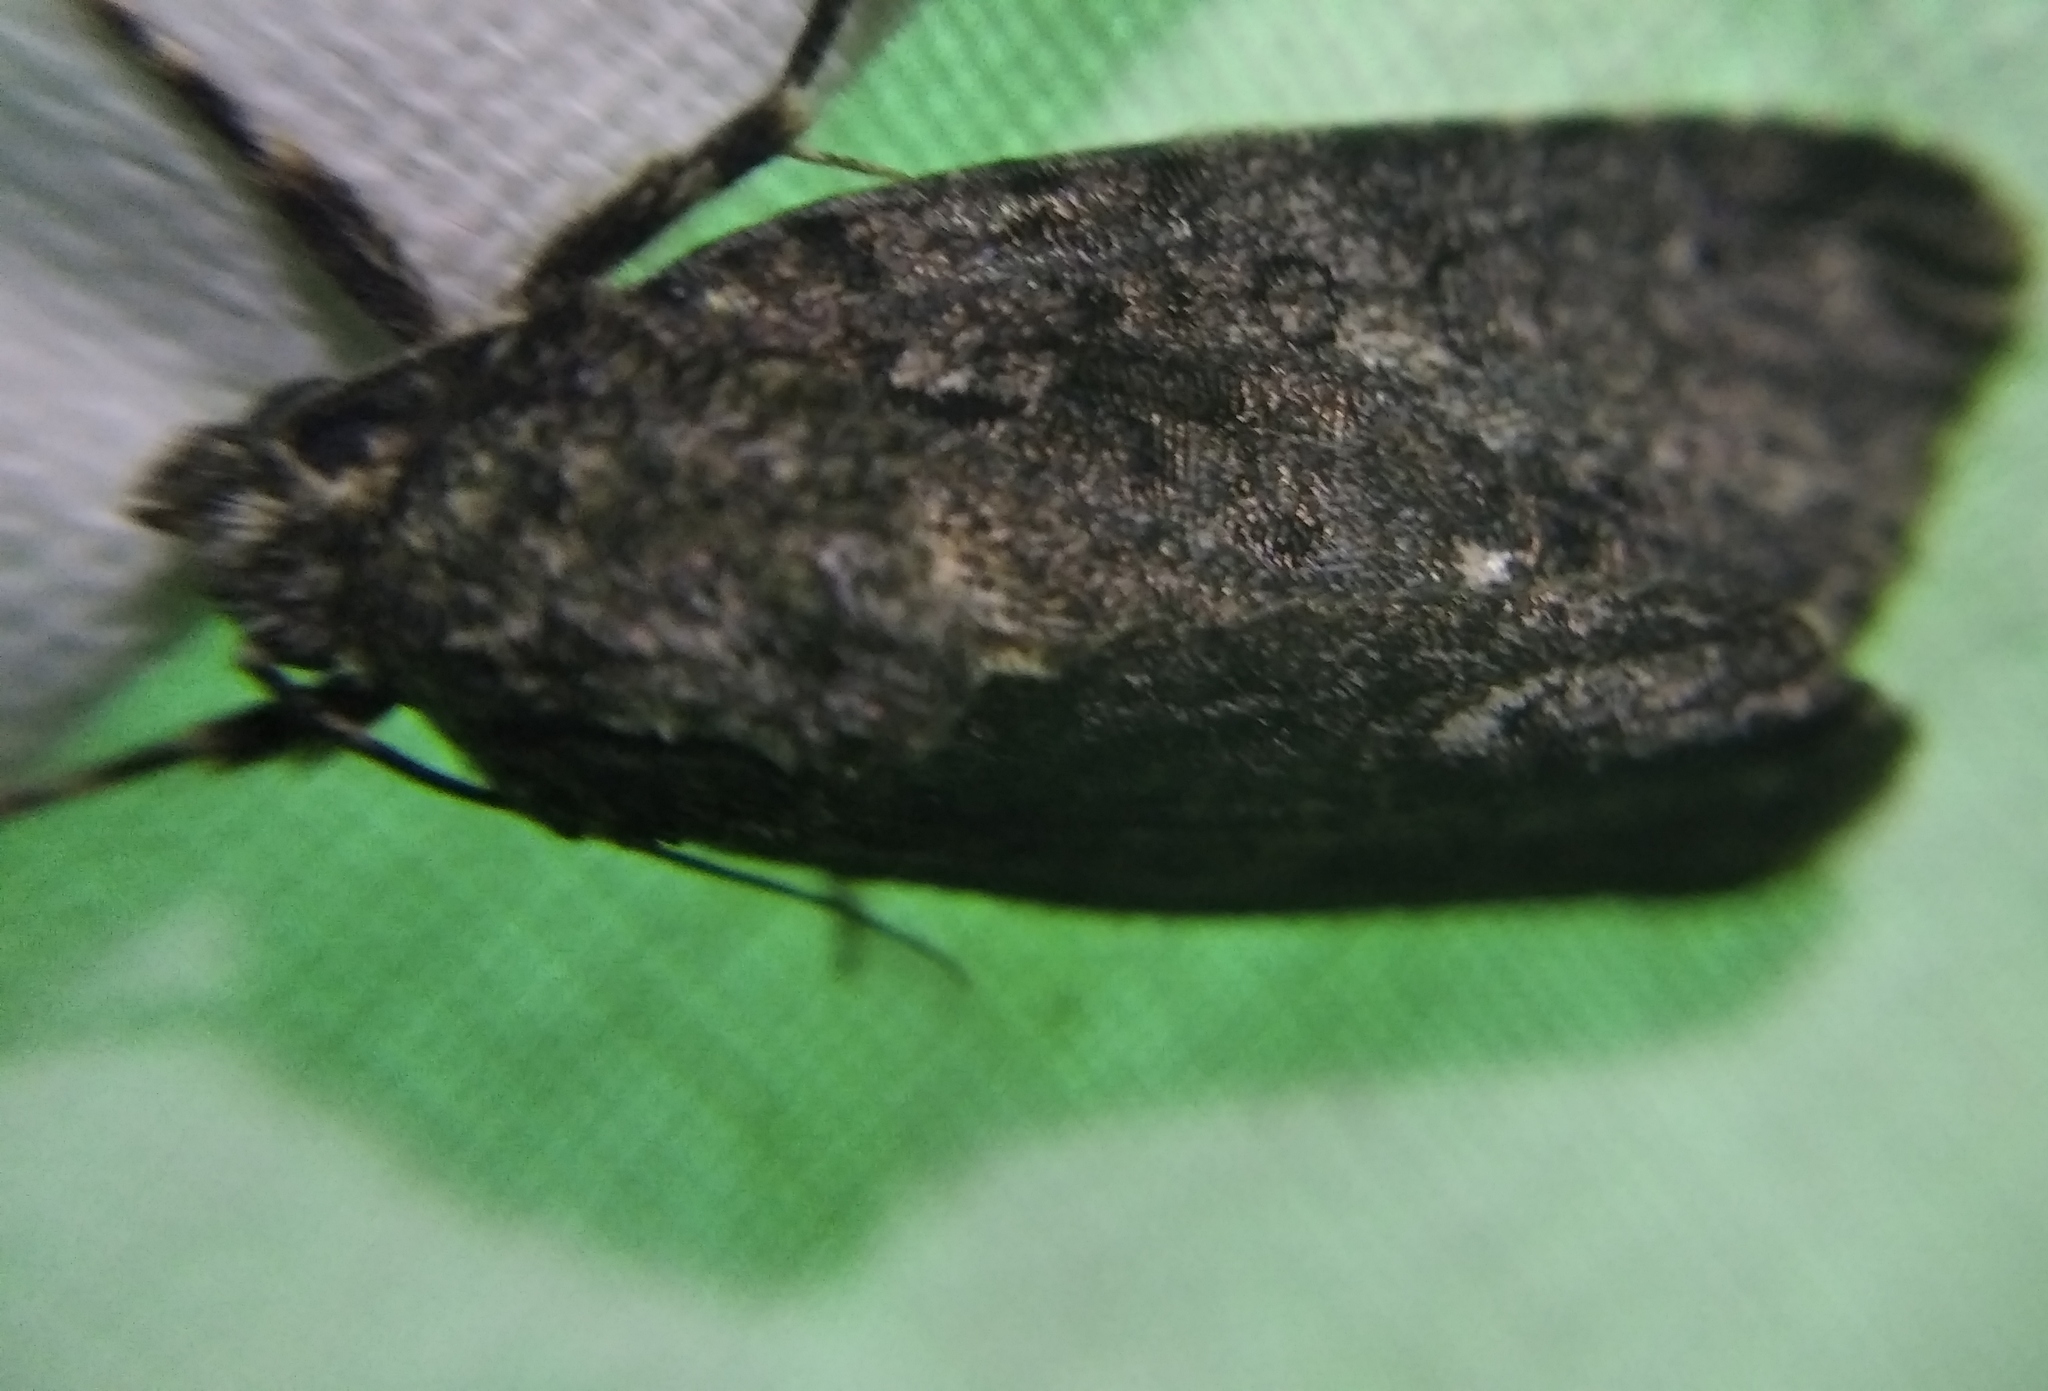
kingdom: Animalia
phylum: Arthropoda
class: Insecta
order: Lepidoptera
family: Noctuidae
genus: Acronicta
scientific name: Acronicta rumicis
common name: Knot grass
